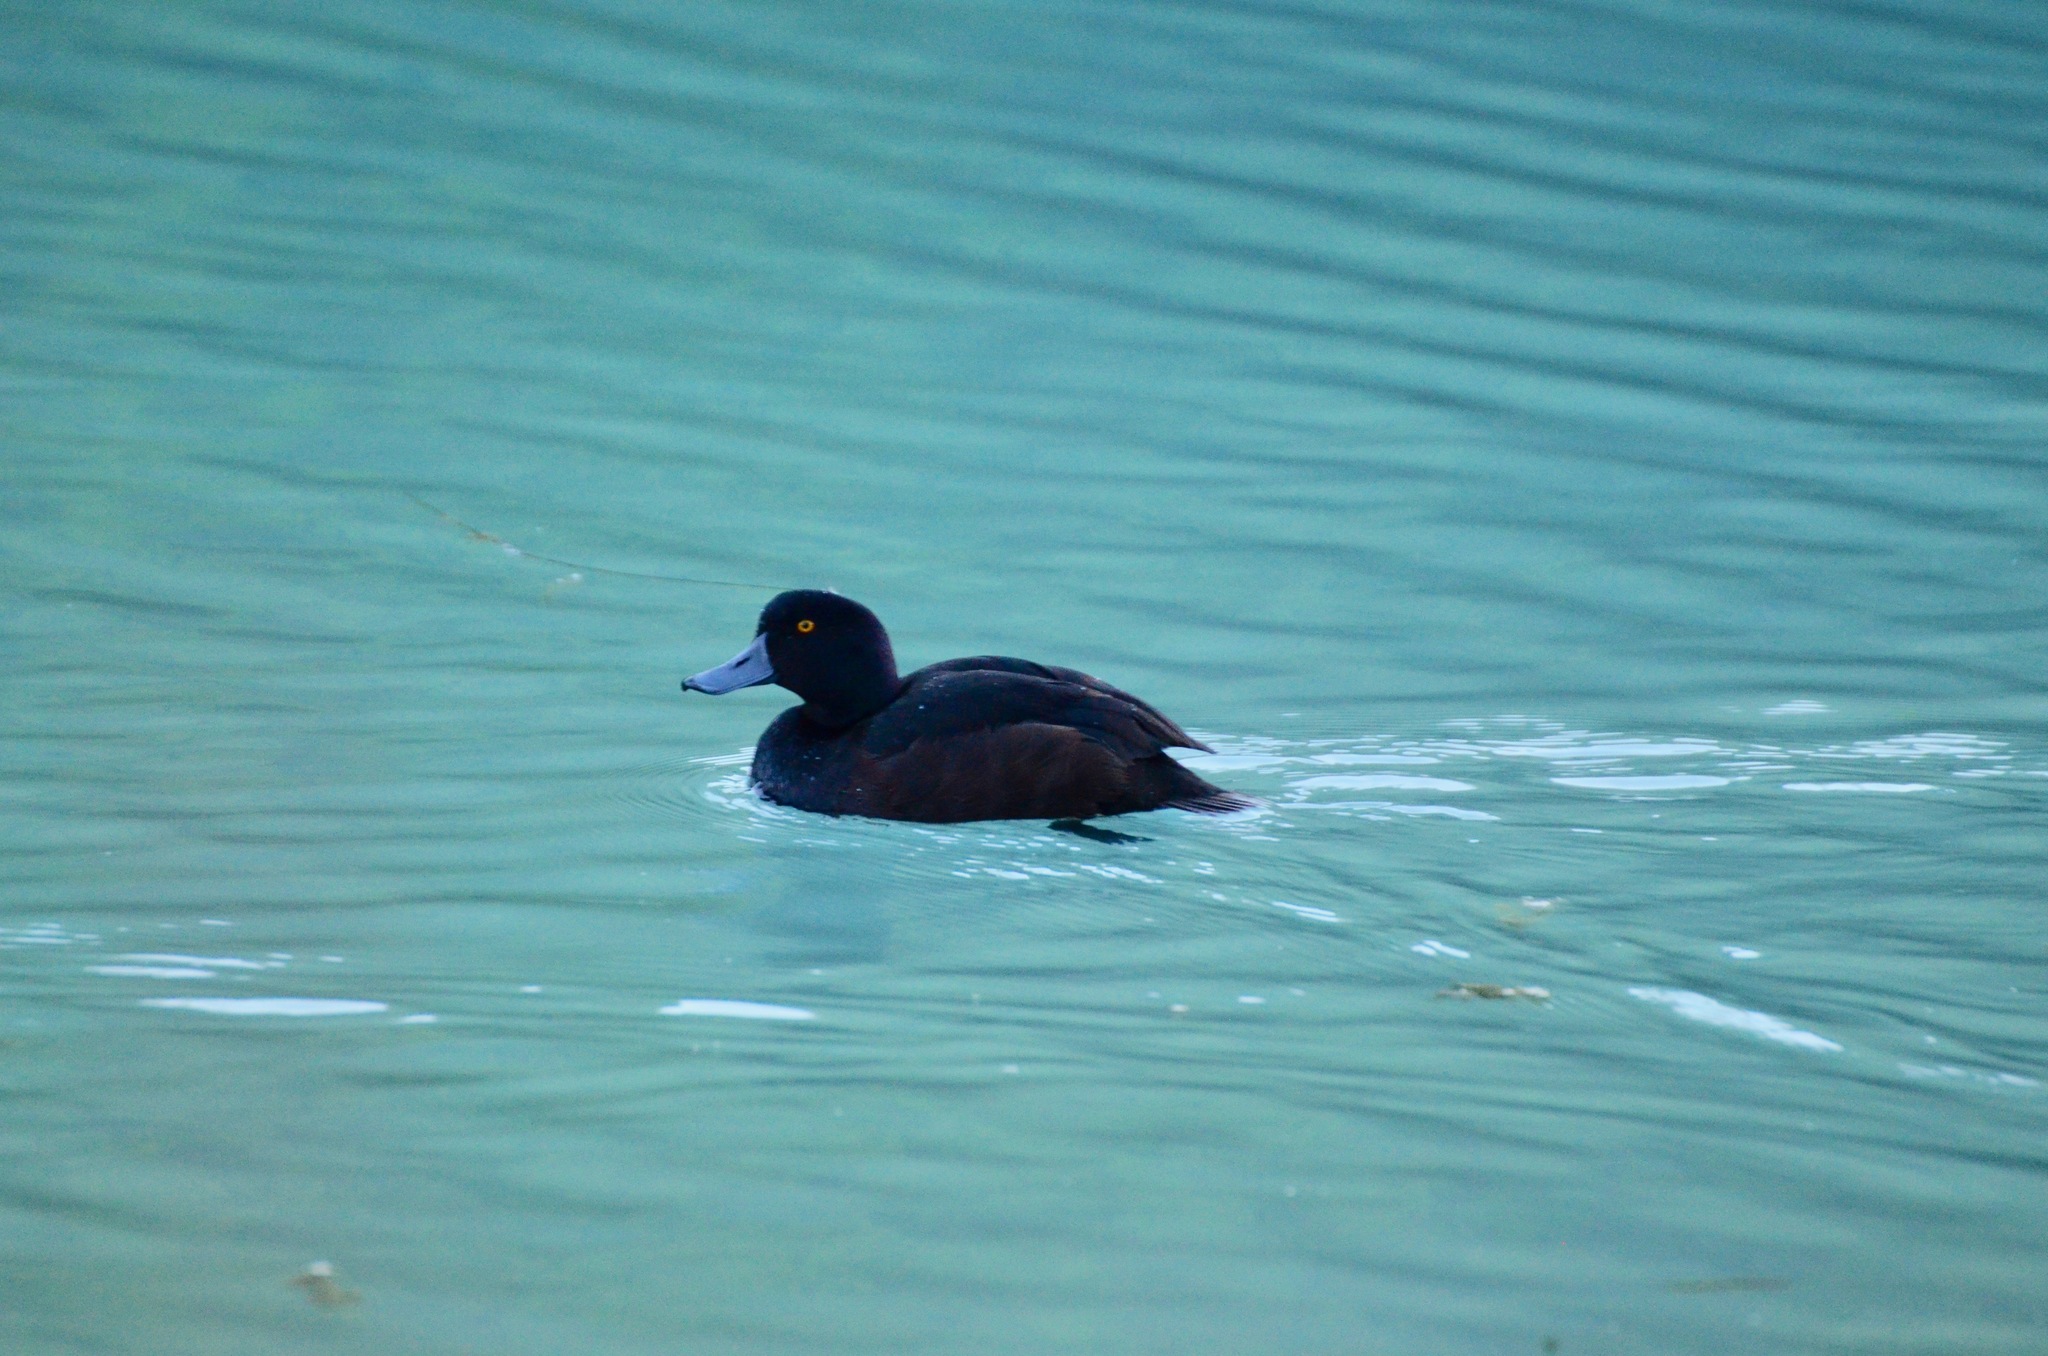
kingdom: Animalia
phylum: Chordata
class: Aves
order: Anseriformes
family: Anatidae
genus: Aythya
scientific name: Aythya novaeseelandiae
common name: New zealand scaup
